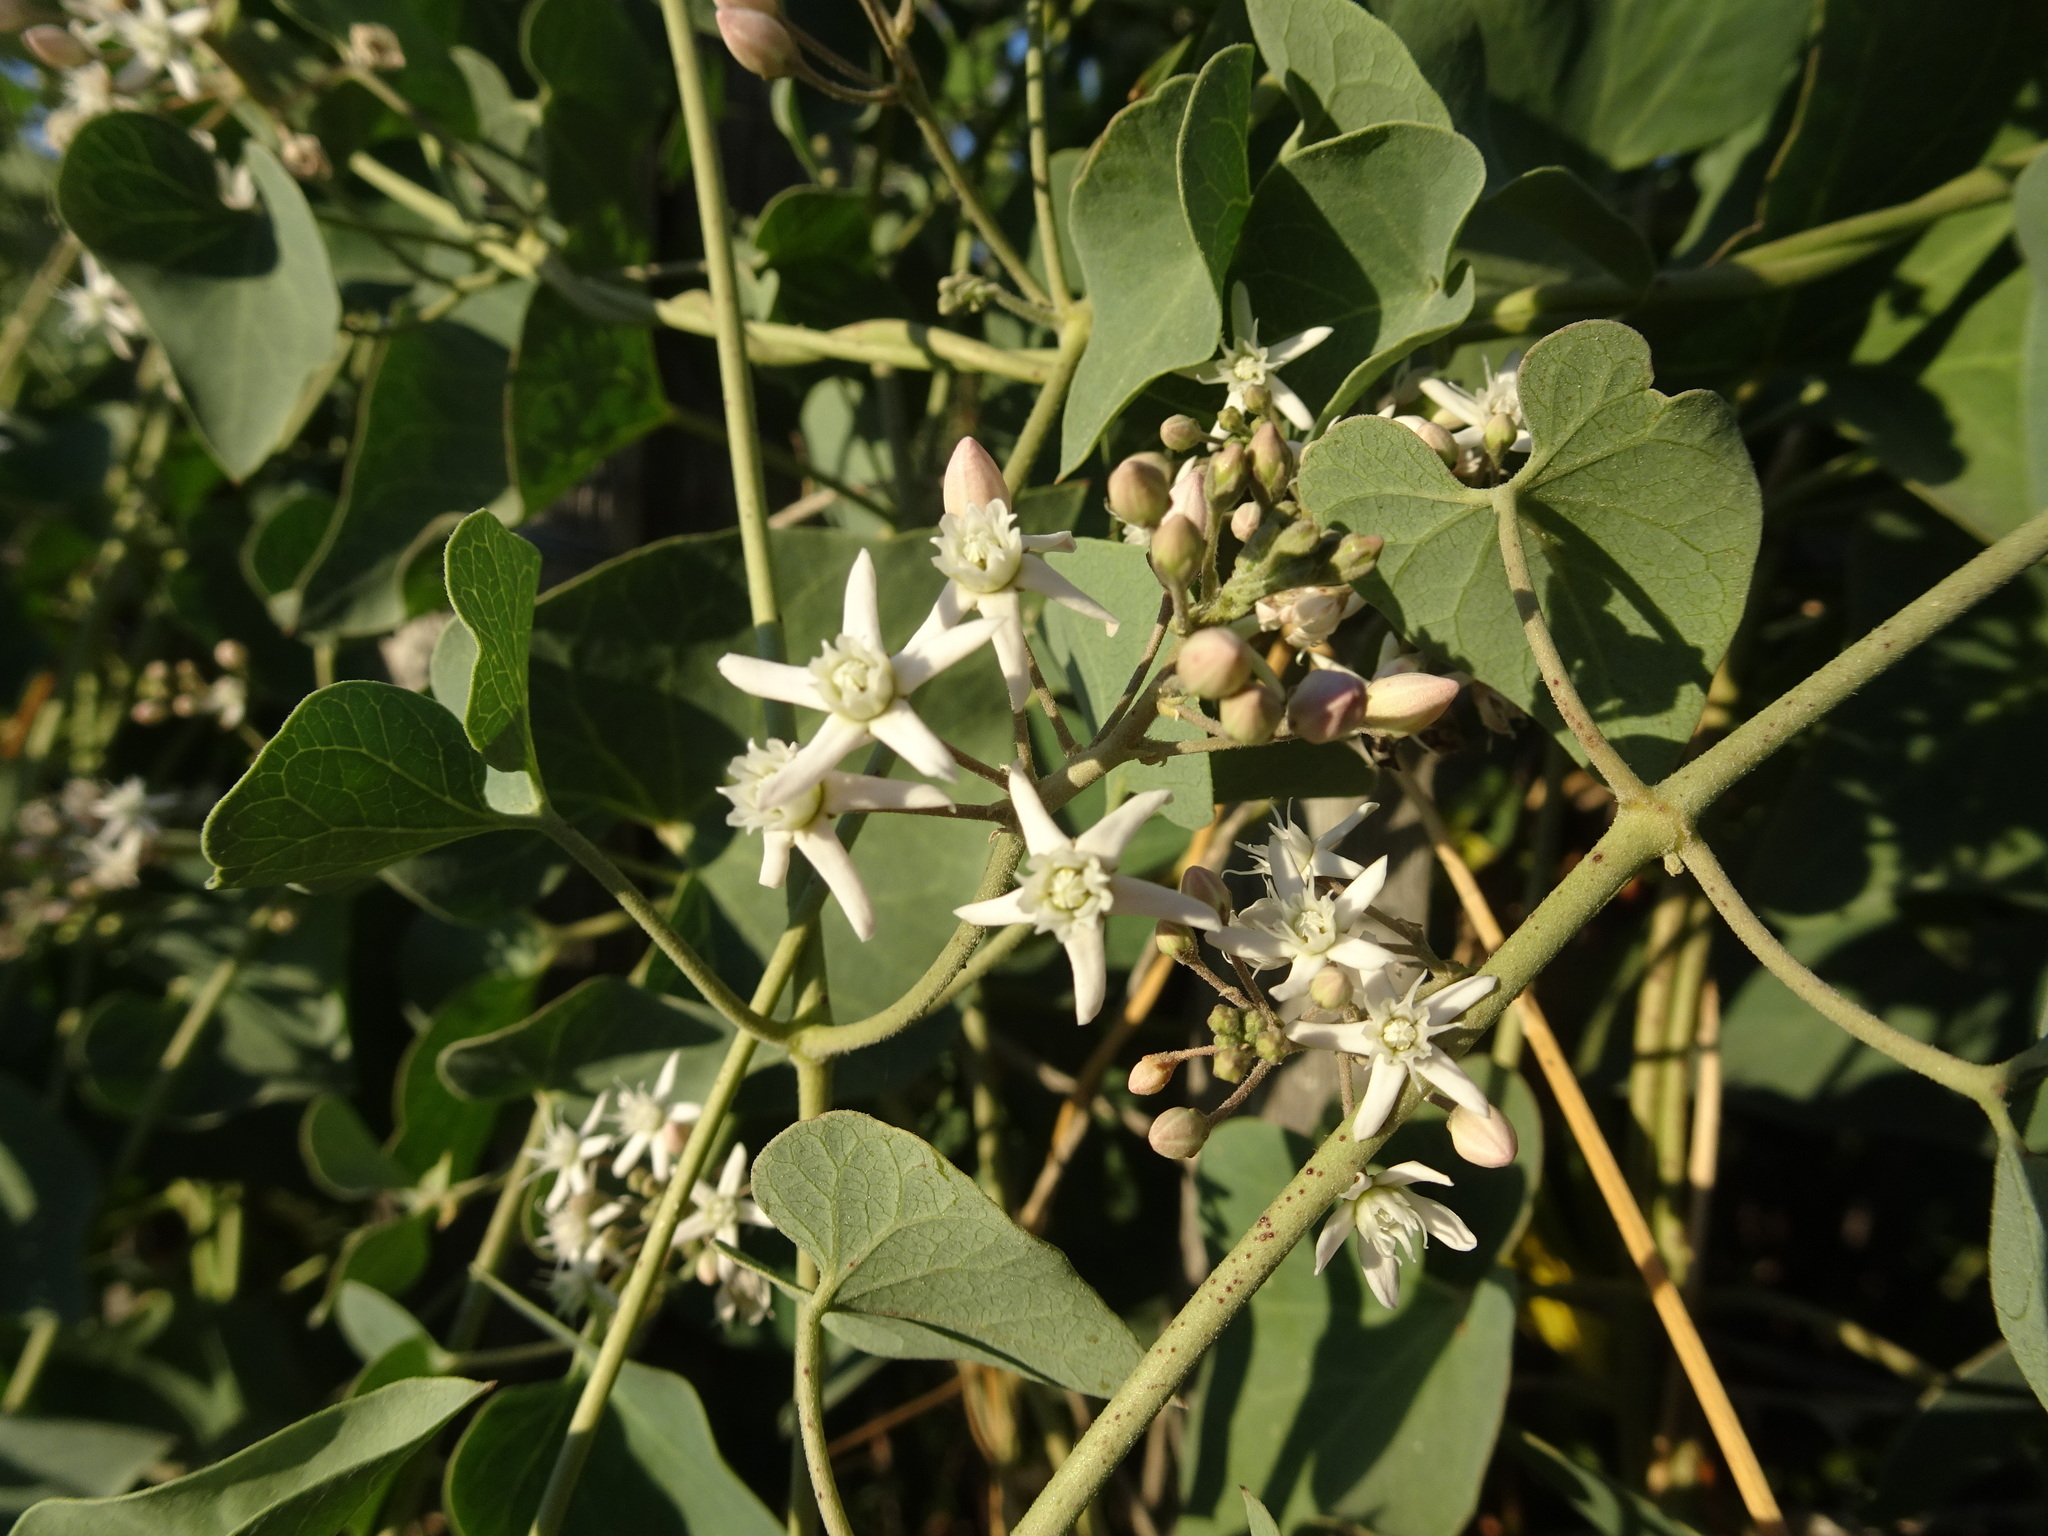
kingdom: Plantae
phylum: Tracheophyta
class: Magnoliopsida
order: Gentianales
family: Apocynaceae
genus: Cynanchum
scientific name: Cynanchum acutum
